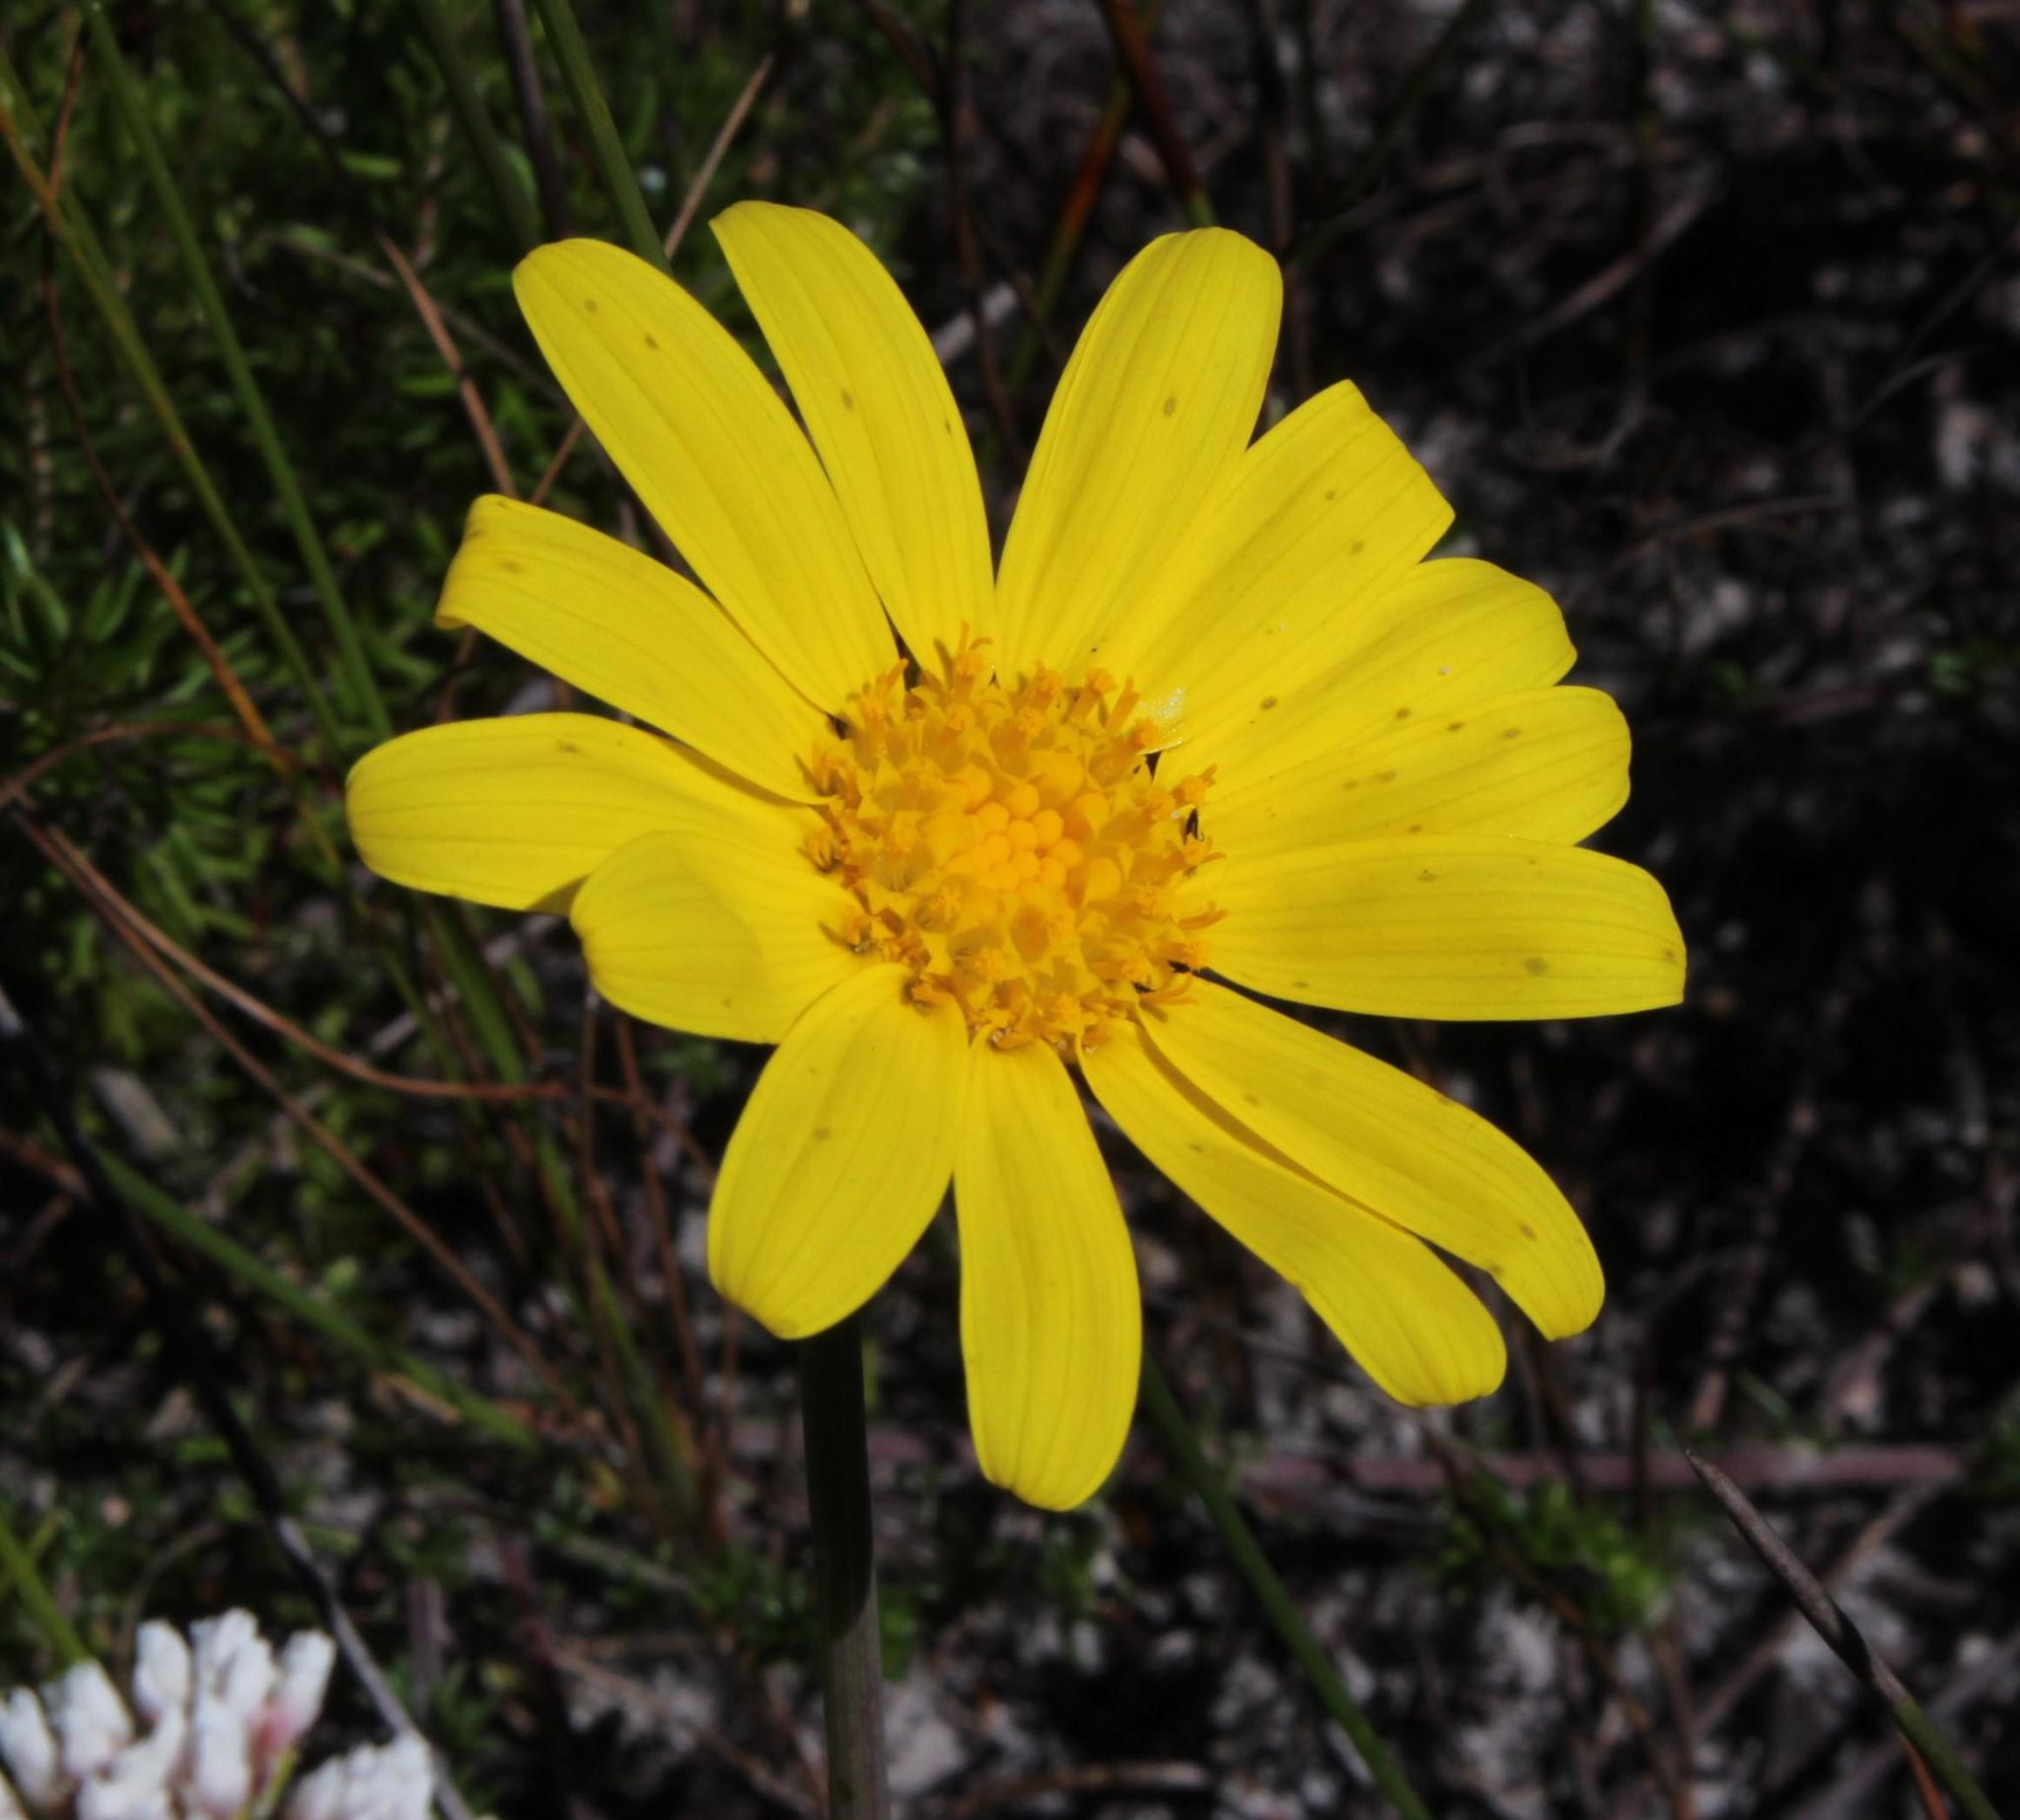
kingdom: Plantae
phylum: Tracheophyta
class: Magnoliopsida
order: Asterales
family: Asteraceae
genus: Othonna
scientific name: Othonna bulbosa
